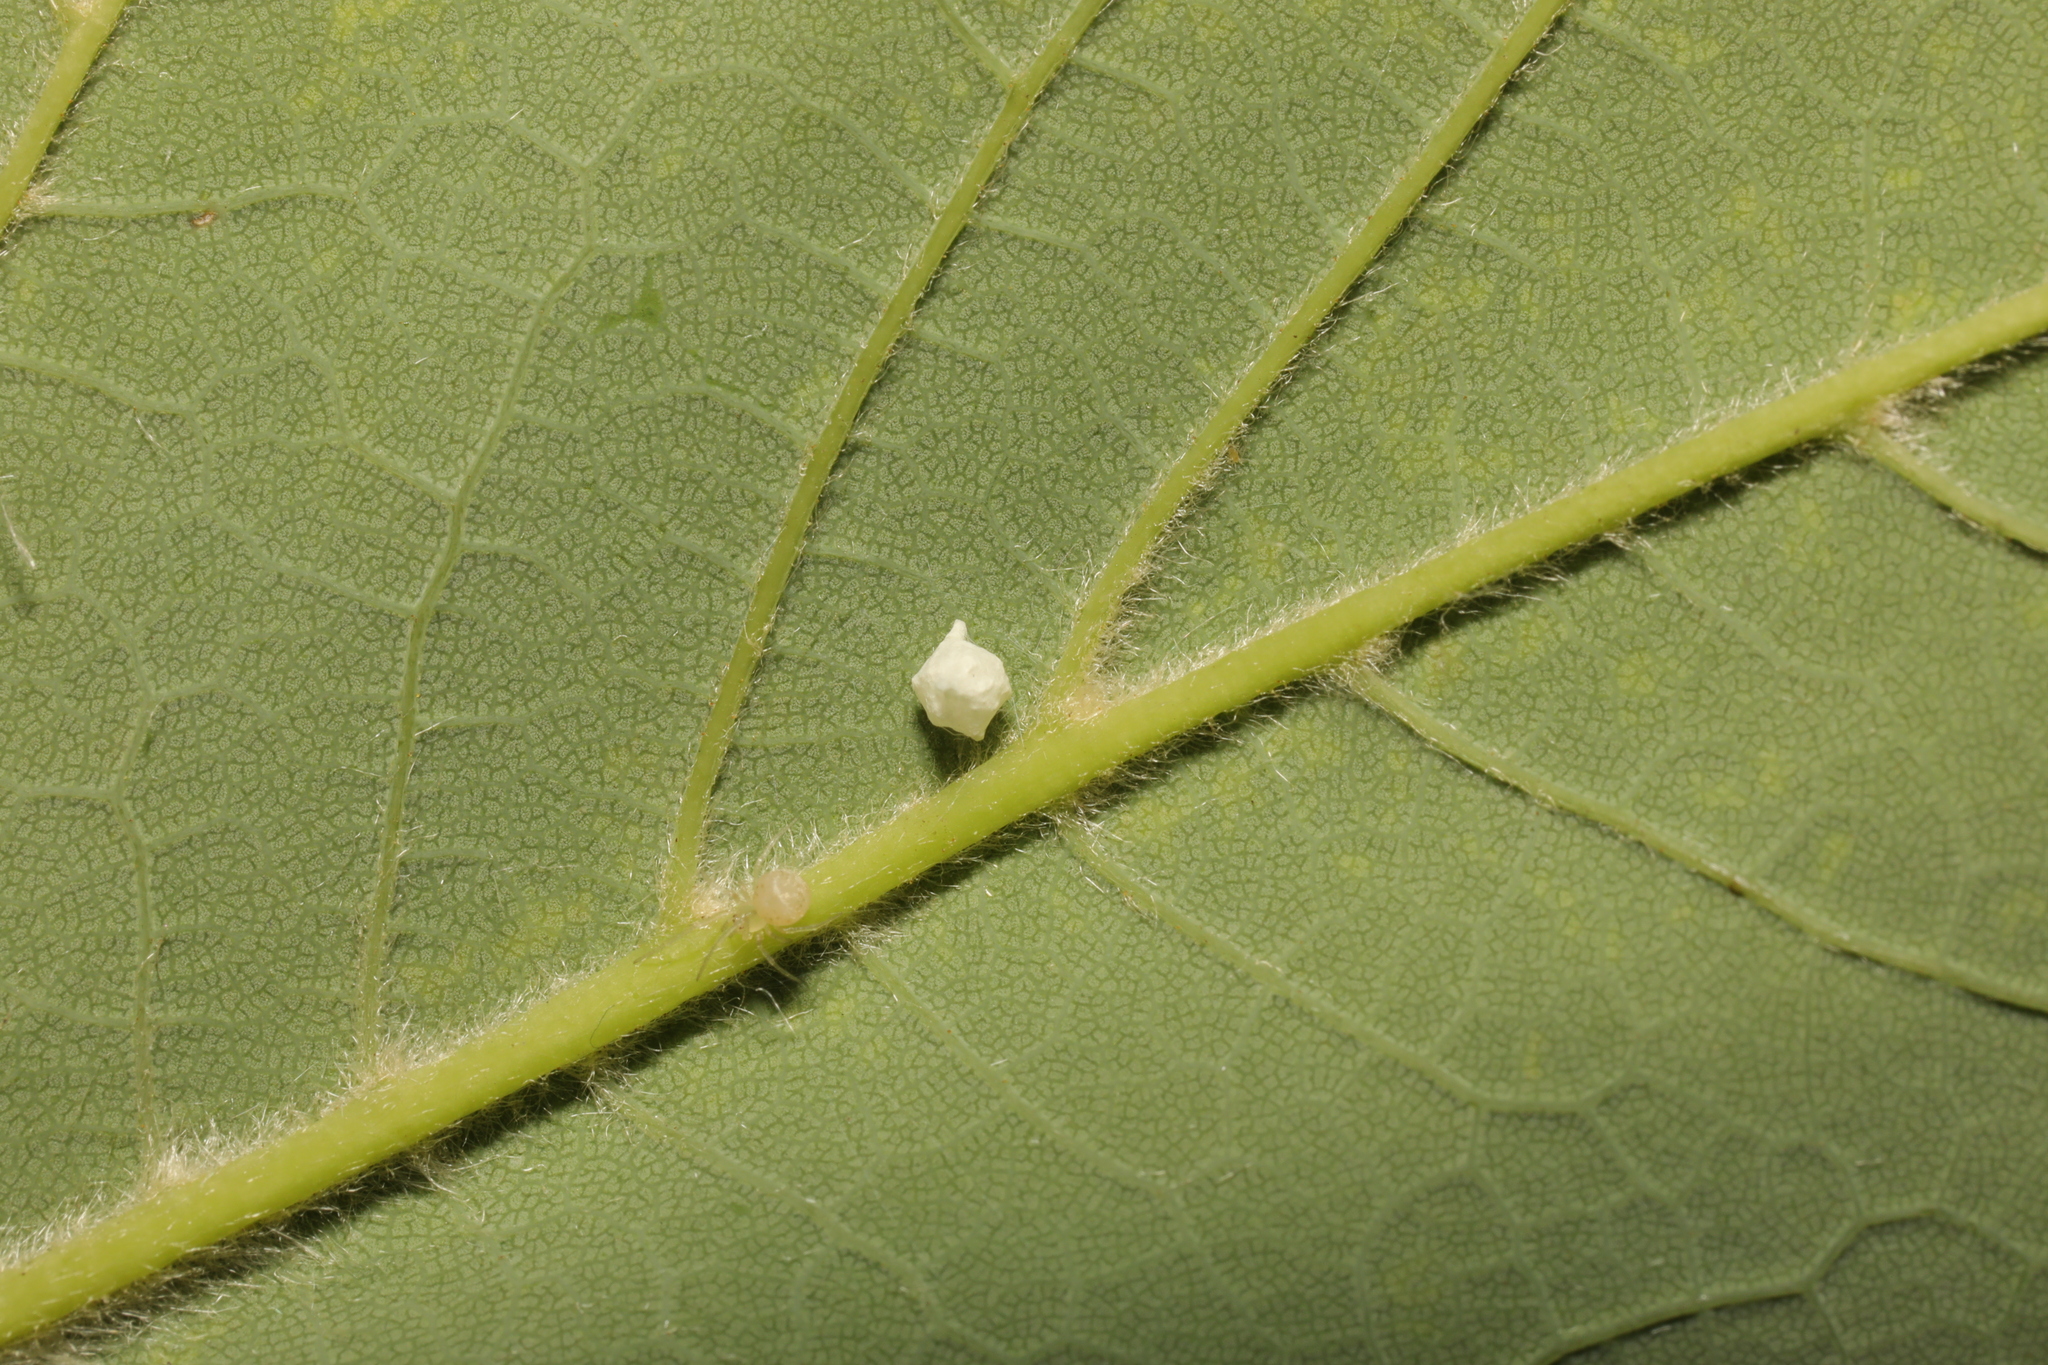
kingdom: Animalia
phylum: Arthropoda
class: Arachnida
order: Araneae
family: Theridiidae
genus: Paidiscura
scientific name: Paidiscura pallens
